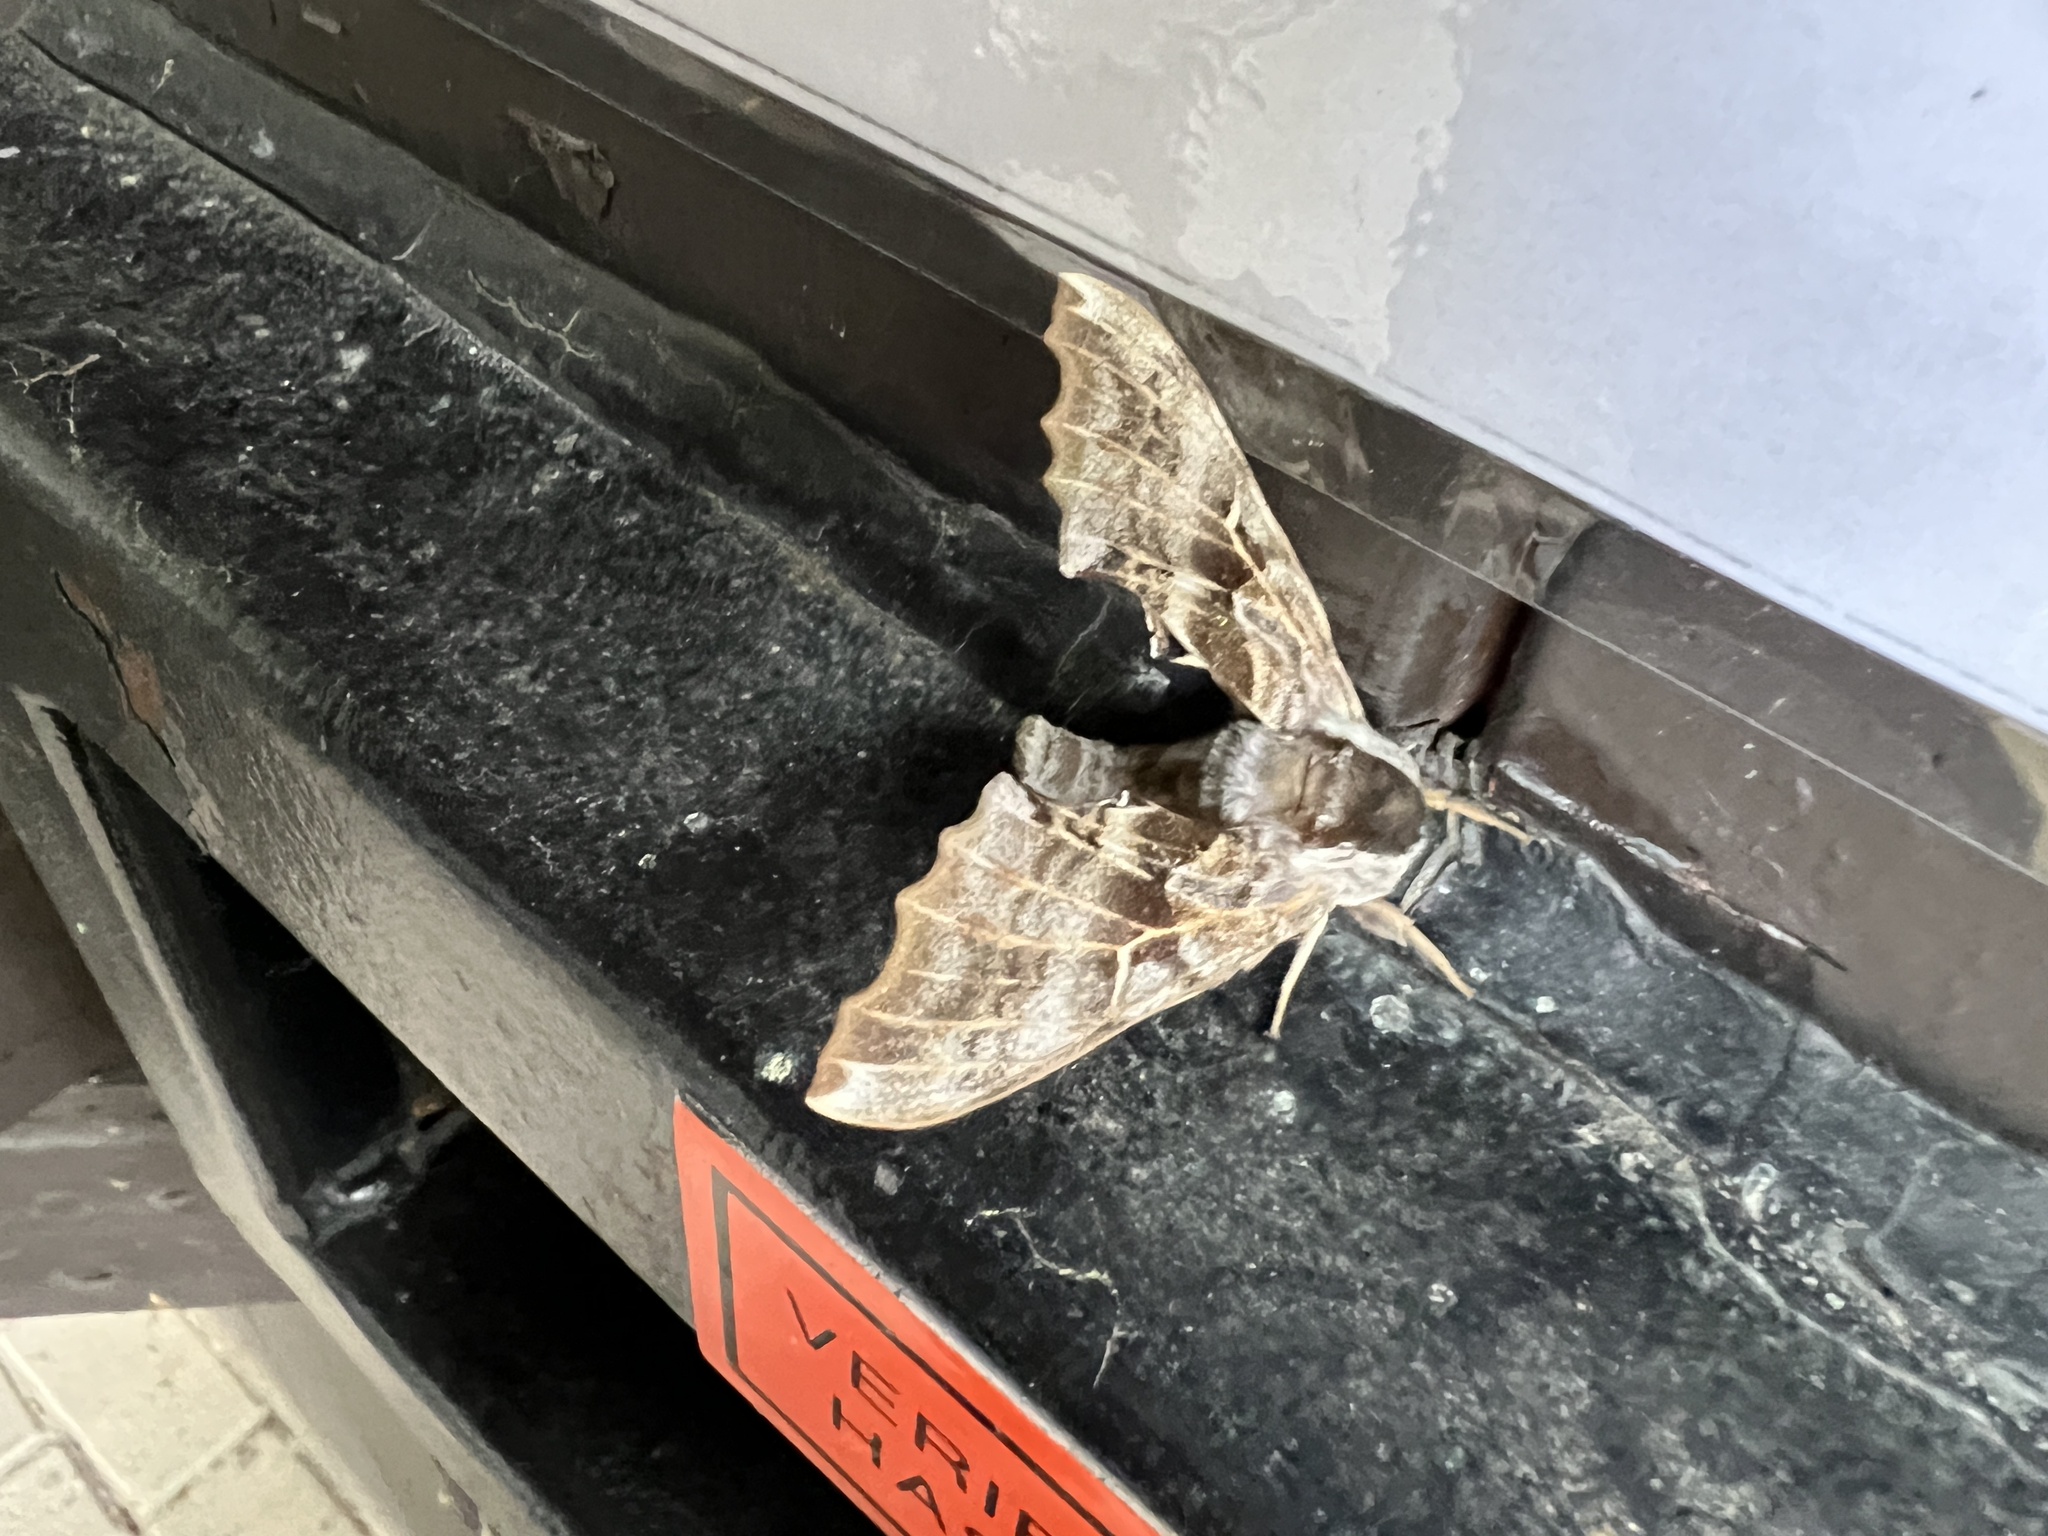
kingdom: Animalia
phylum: Arthropoda
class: Insecta
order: Lepidoptera
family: Sphingidae
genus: Smerinthus
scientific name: Smerinthus cerisyi
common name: Cerisy's sphinx moth
